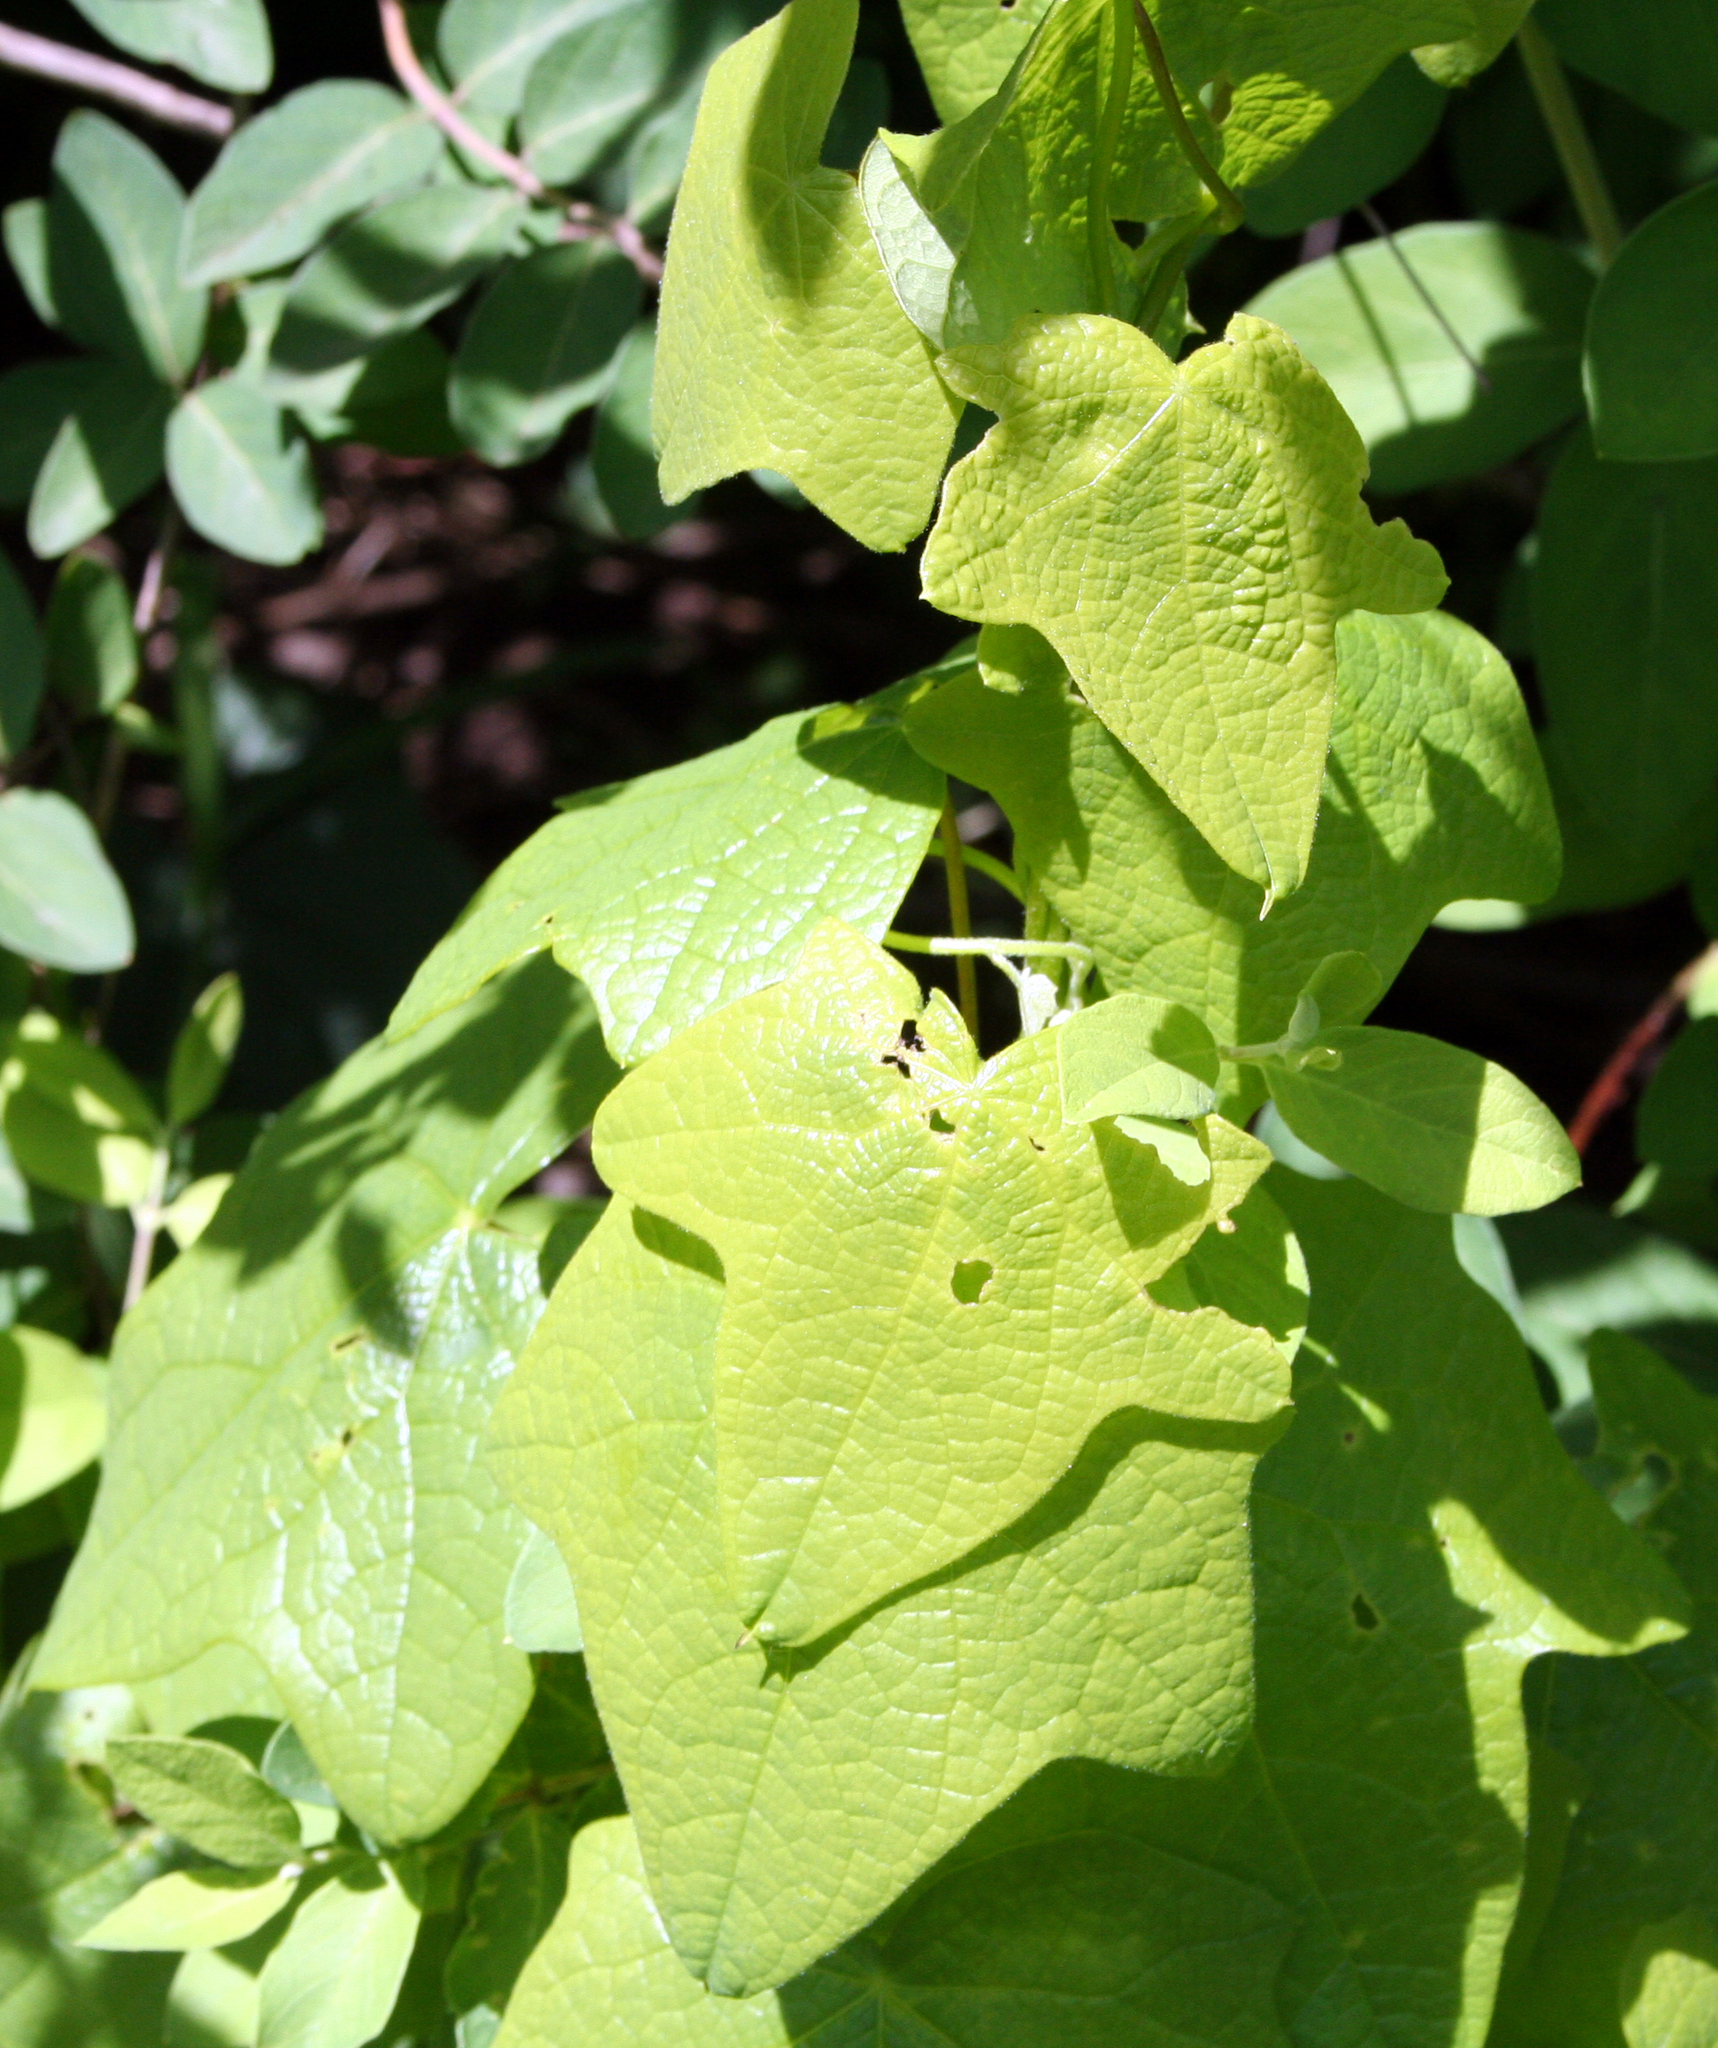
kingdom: Plantae
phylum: Tracheophyta
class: Magnoliopsida
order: Ranunculales
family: Menispermaceae
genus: Menispermum
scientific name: Menispermum canadense
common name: Moonseed
